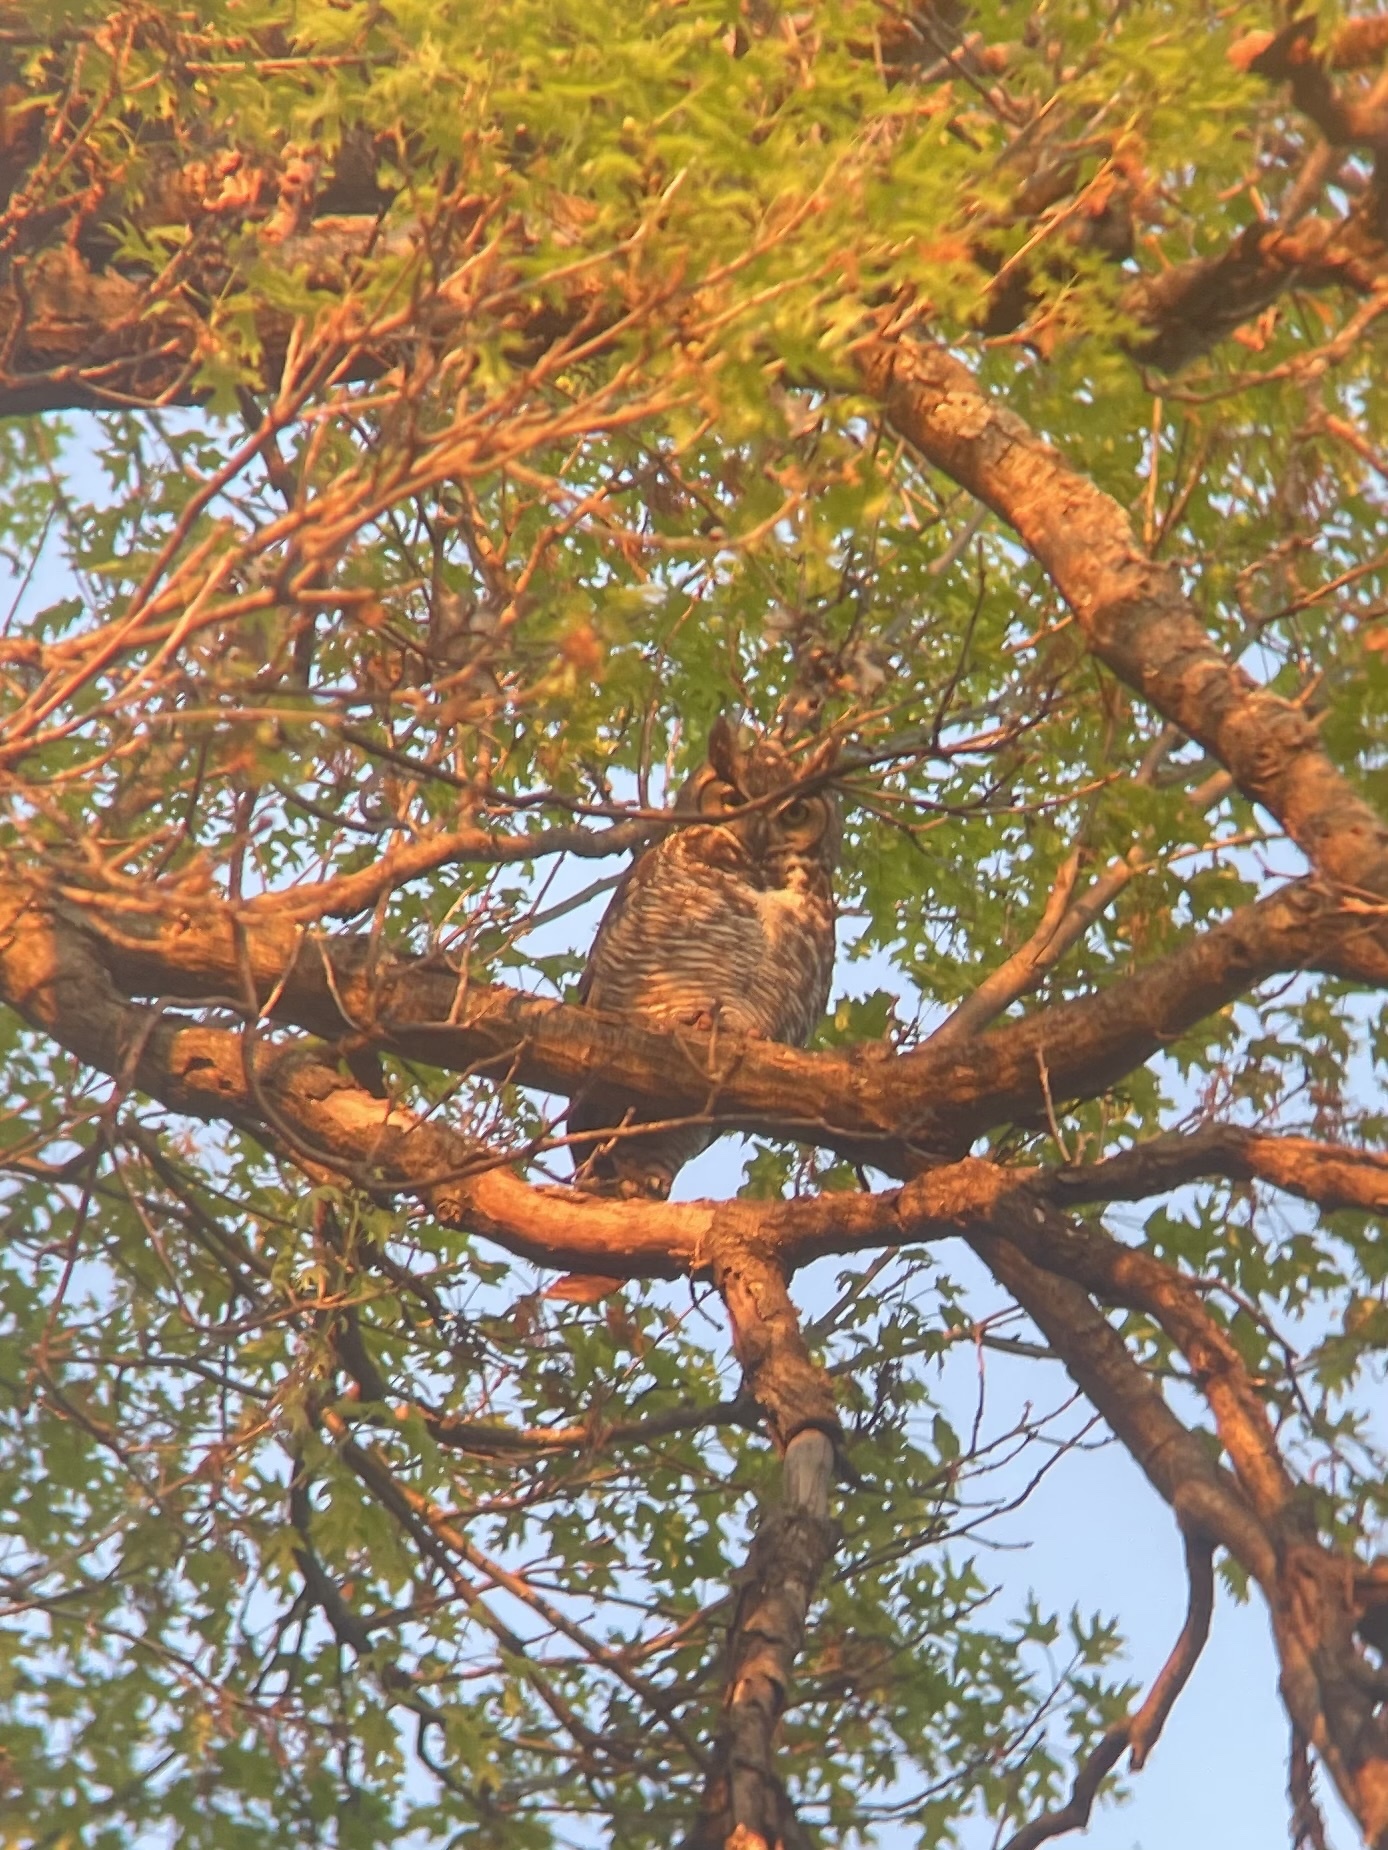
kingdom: Animalia
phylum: Chordata
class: Aves
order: Strigiformes
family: Strigidae
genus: Bubo
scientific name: Bubo virginianus
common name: Great horned owl
